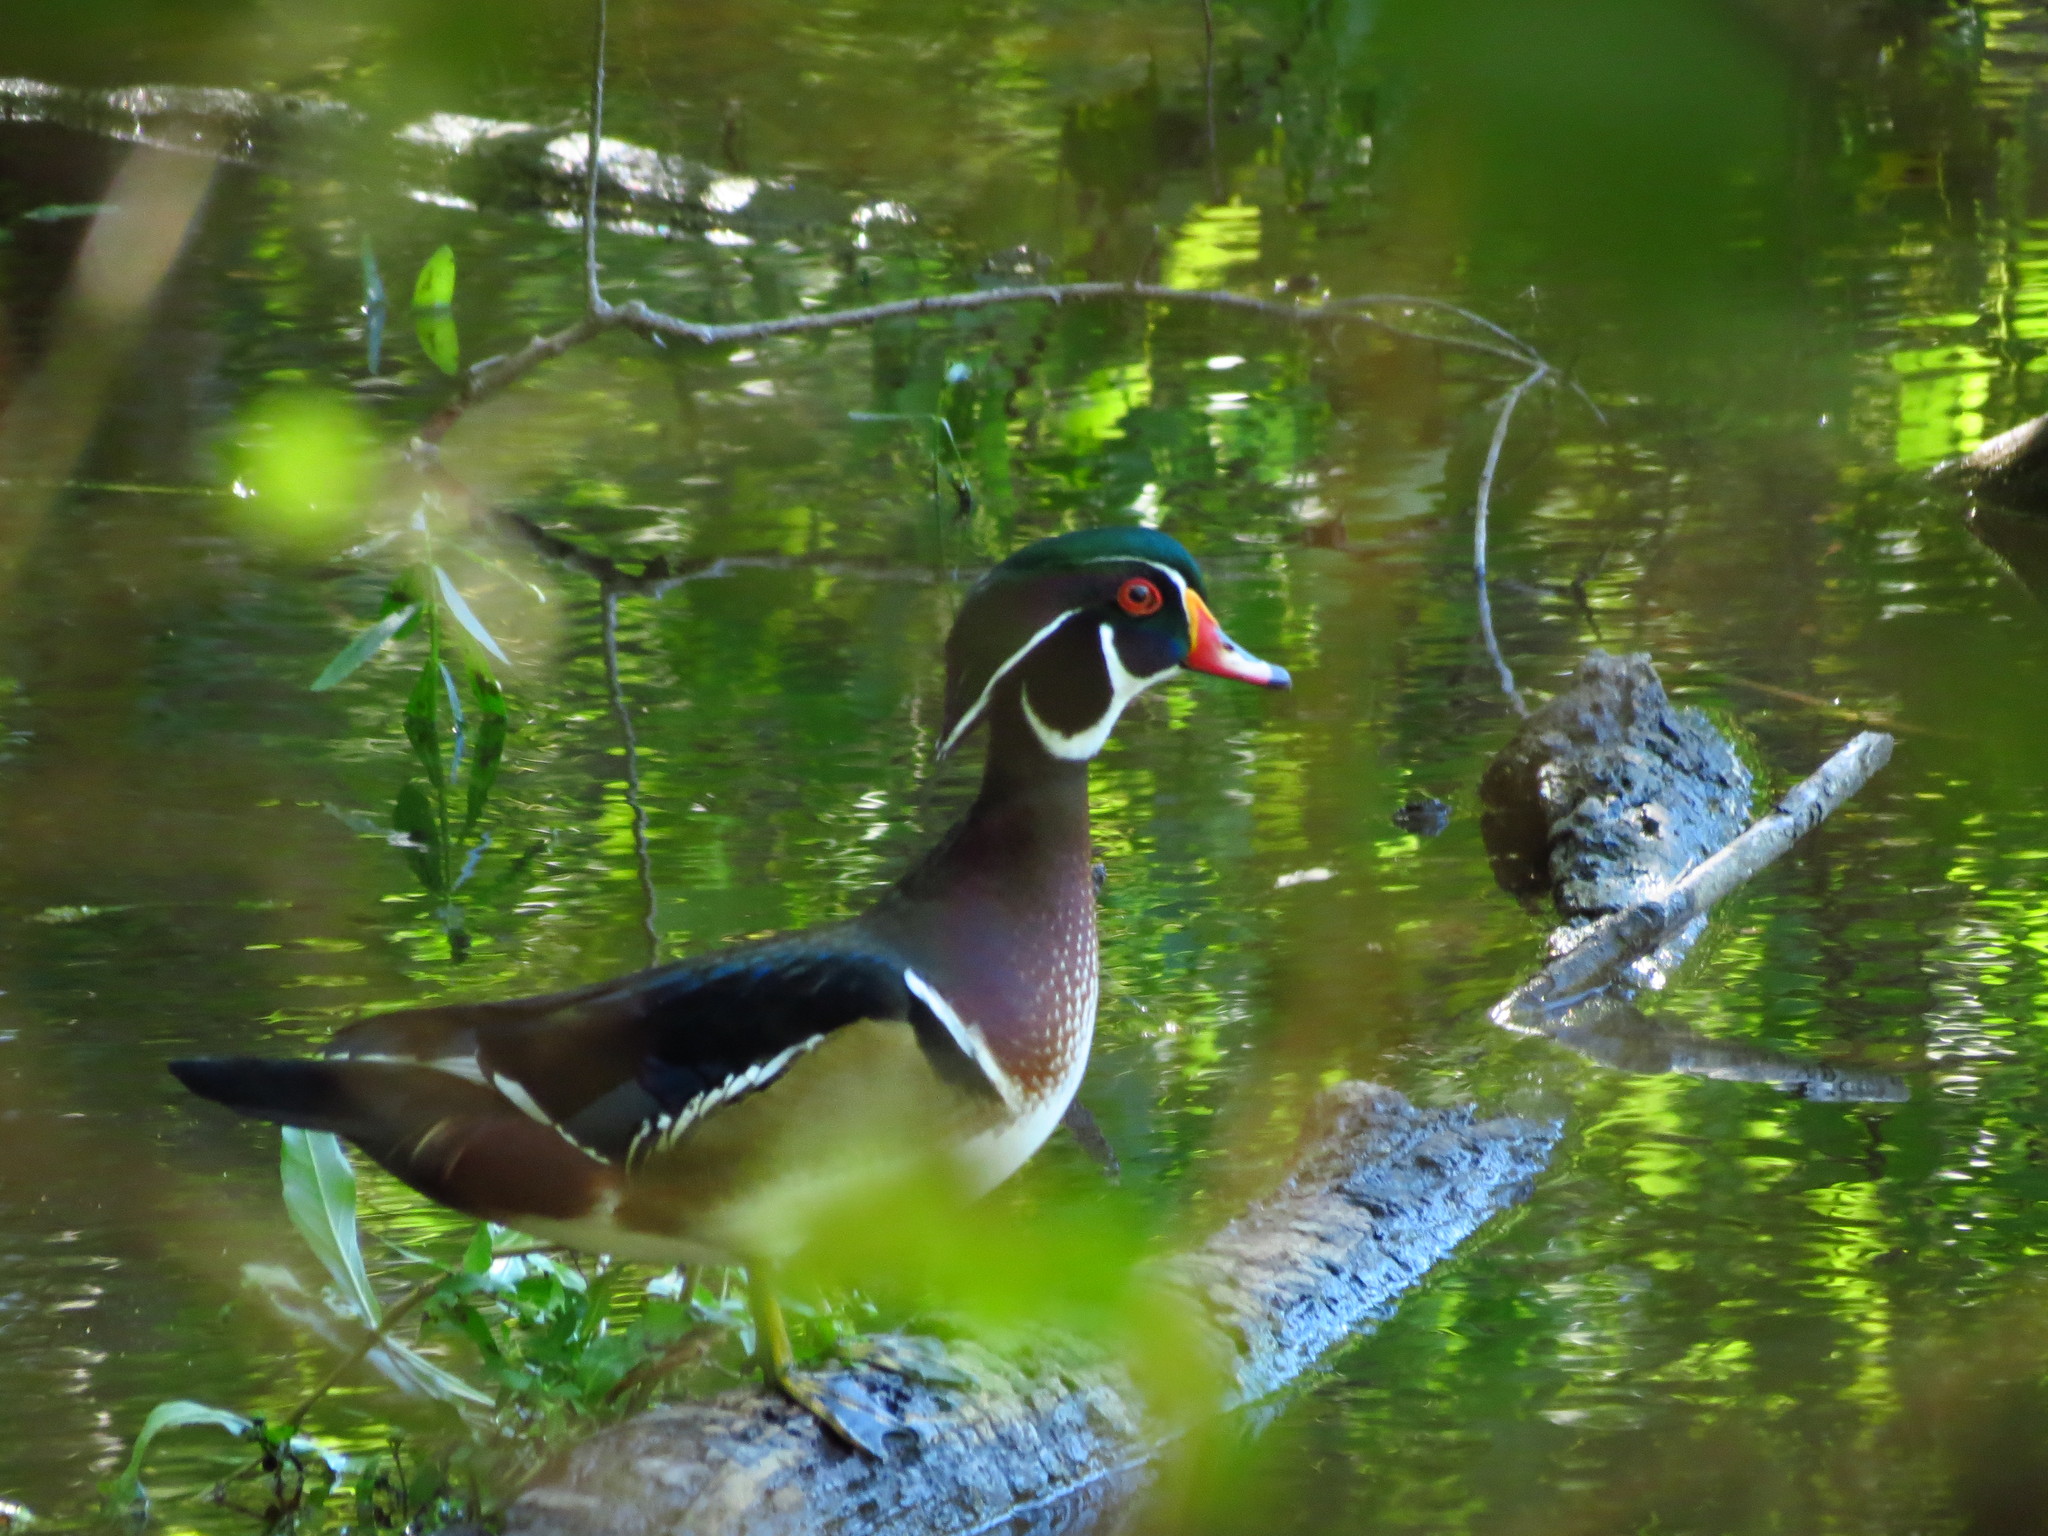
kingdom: Animalia
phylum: Chordata
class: Aves
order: Anseriformes
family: Anatidae
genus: Aix
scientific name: Aix sponsa
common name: Wood duck
